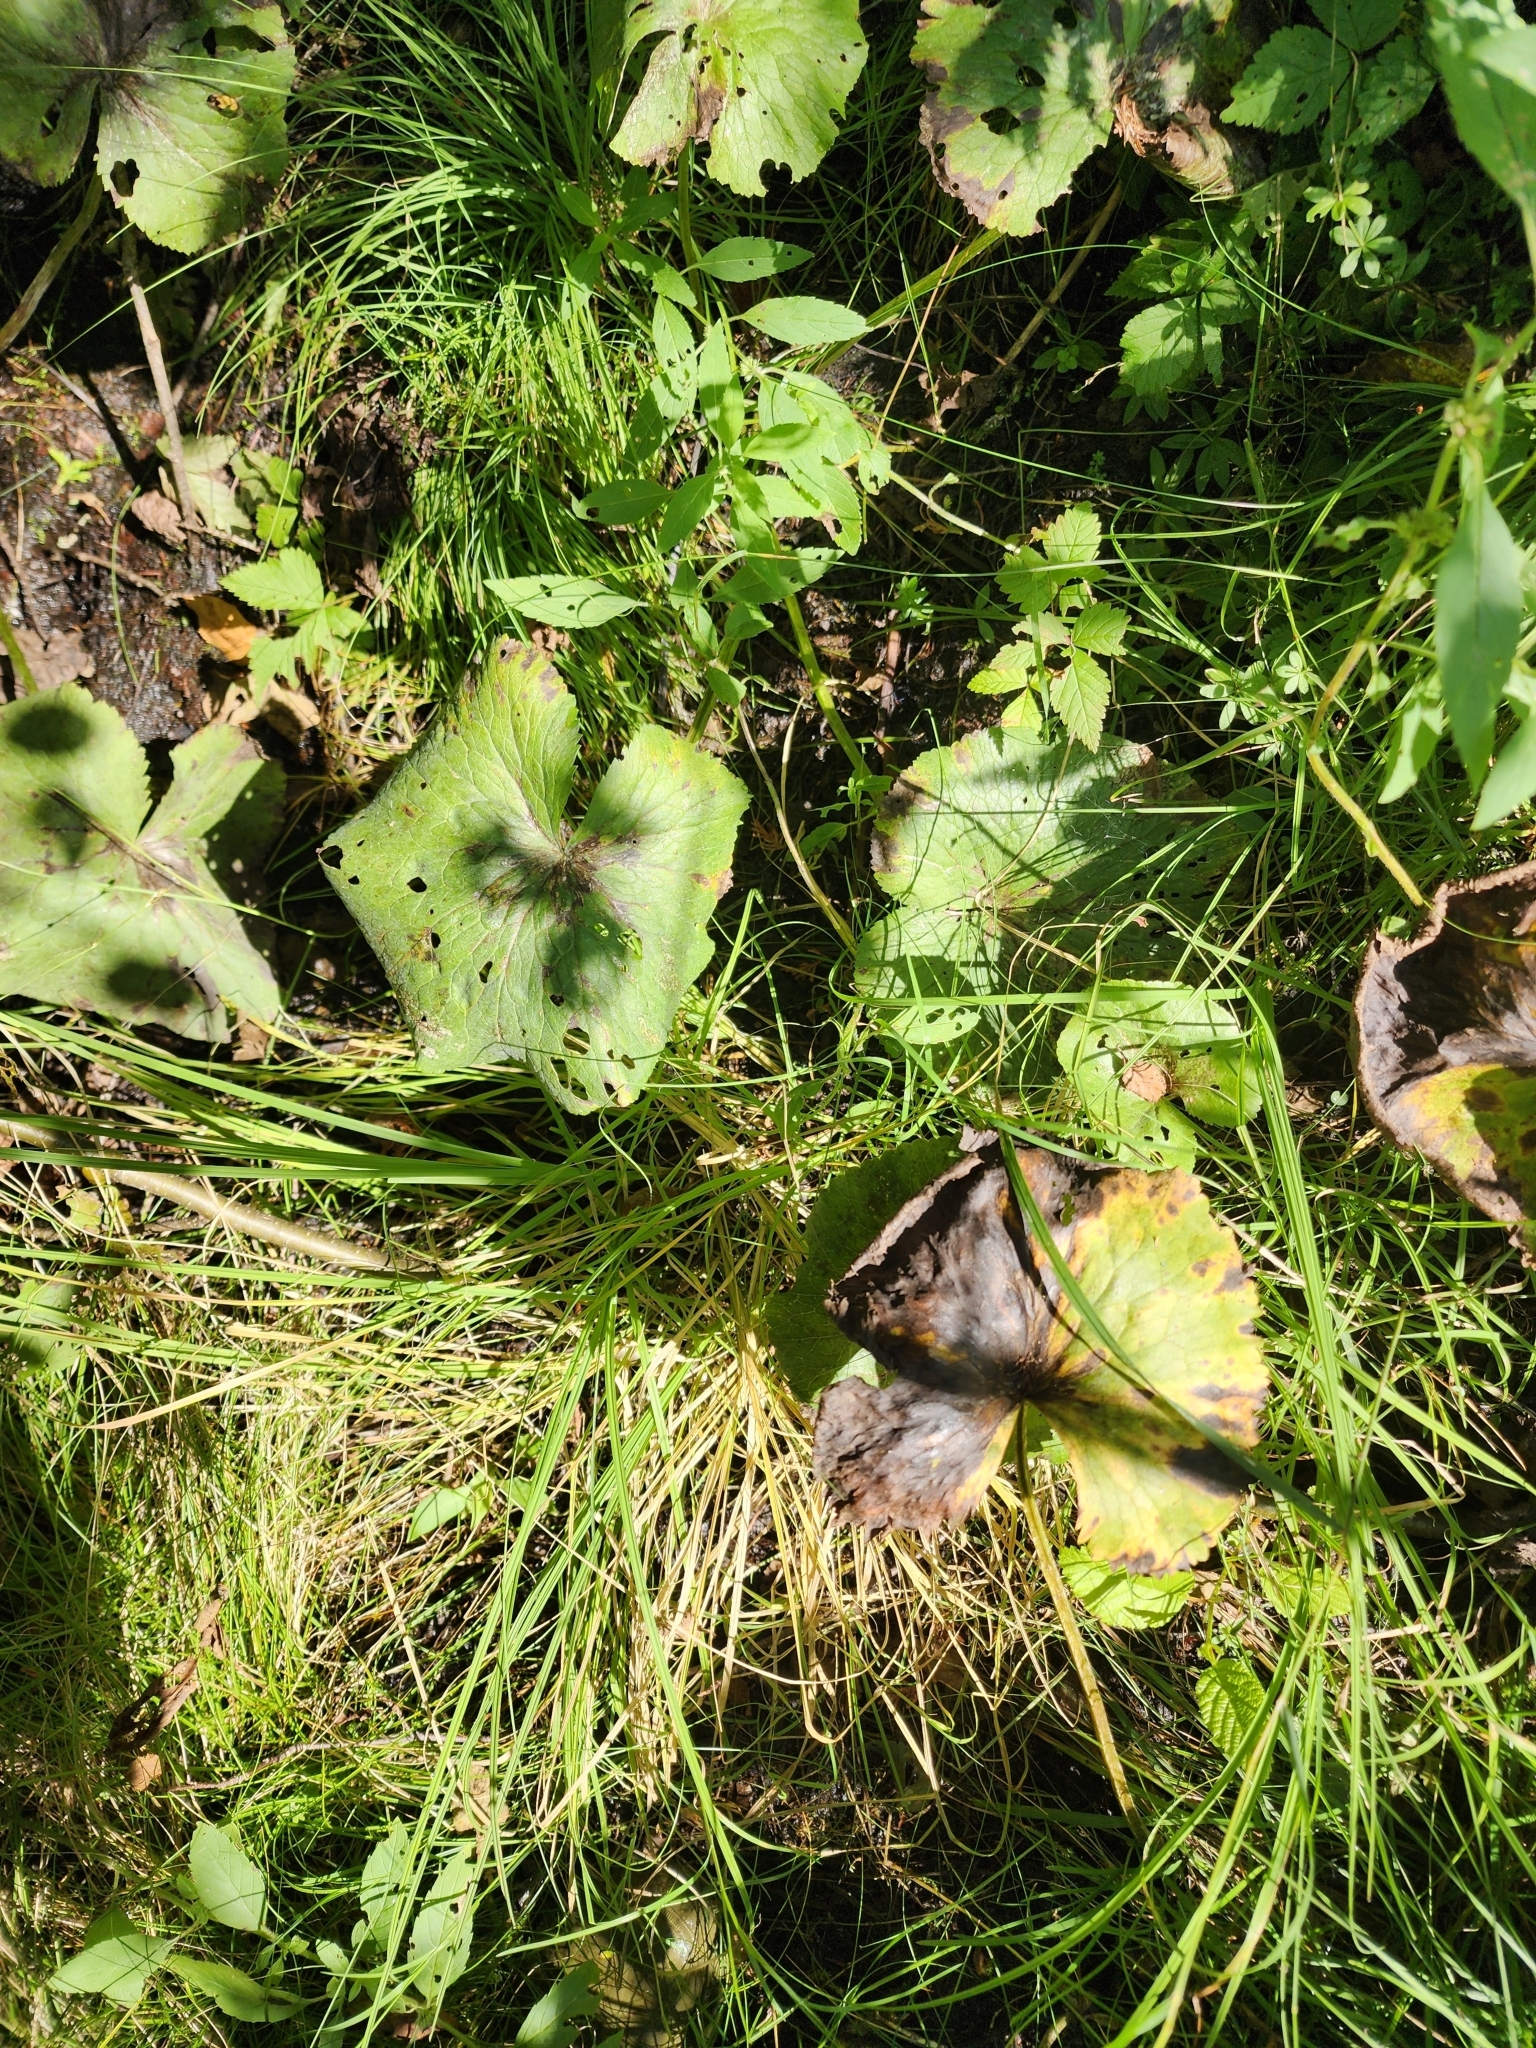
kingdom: Plantae
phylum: Tracheophyta
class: Magnoliopsida
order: Ranunculales
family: Ranunculaceae
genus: Caltha
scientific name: Caltha palustris
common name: Marsh marigold
